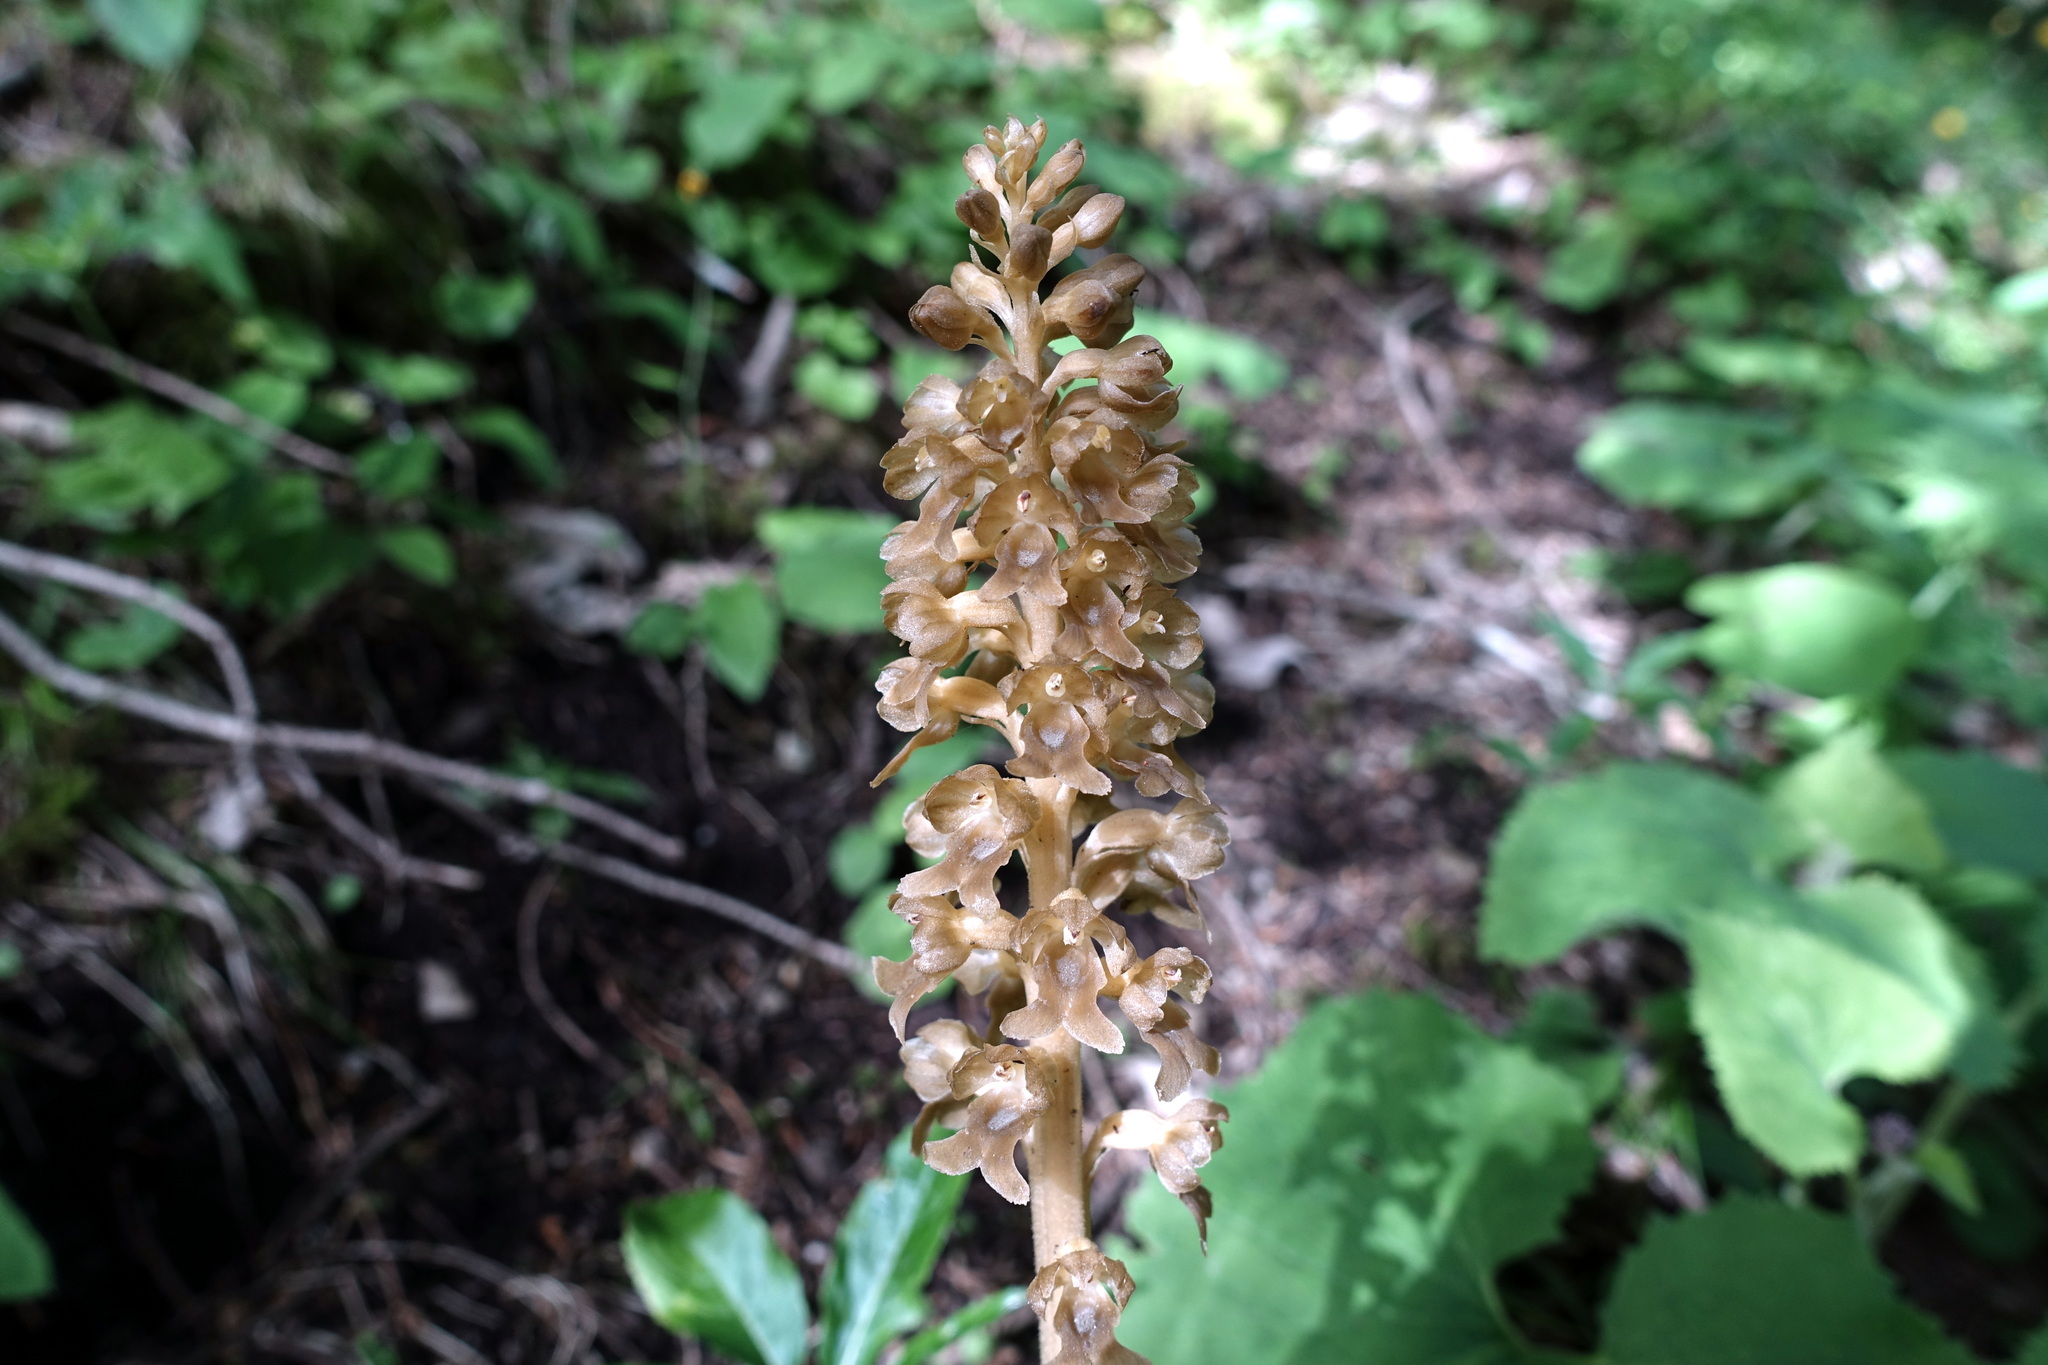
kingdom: Plantae
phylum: Tracheophyta
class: Liliopsida
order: Asparagales
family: Orchidaceae
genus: Neottia
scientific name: Neottia nidus-avis
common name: Bird's-nest orchid
